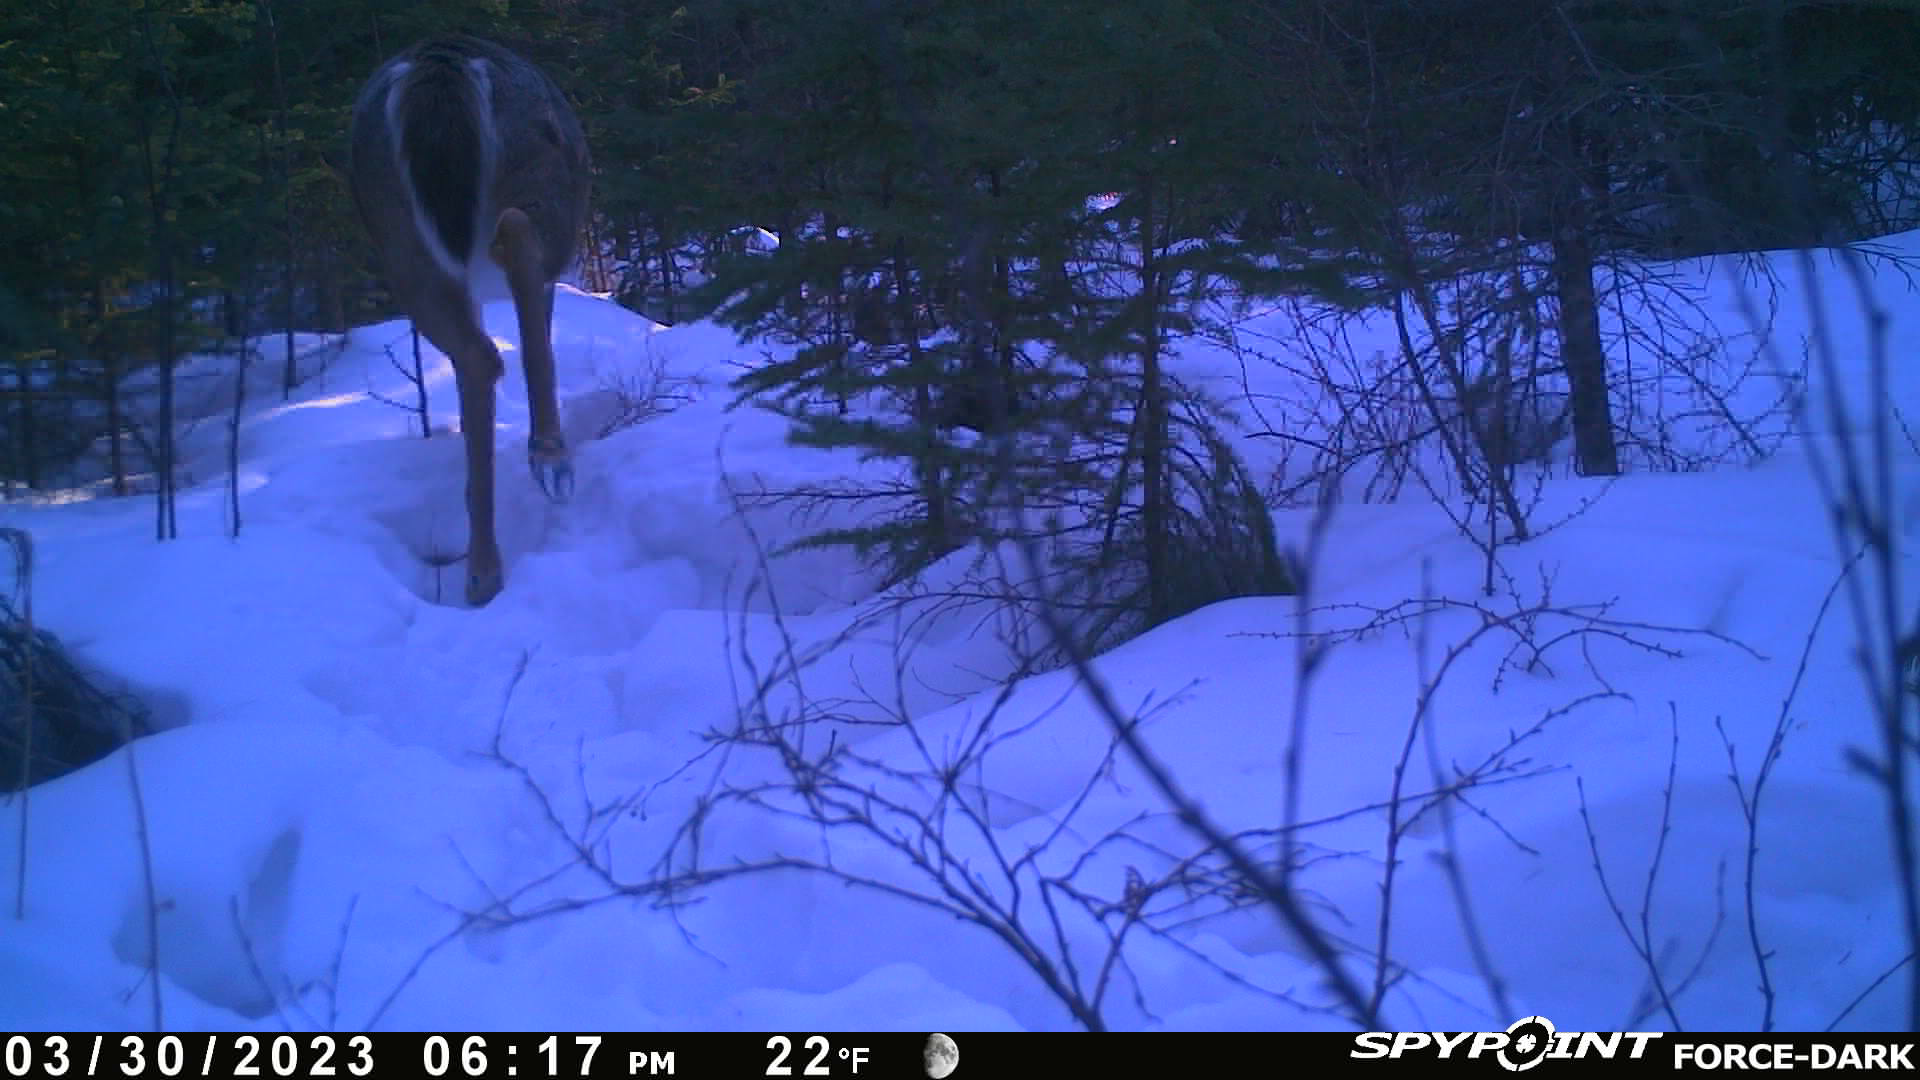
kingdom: Animalia
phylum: Chordata
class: Mammalia
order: Artiodactyla
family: Cervidae
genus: Odocoileus
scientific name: Odocoileus virginianus
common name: White-tailed deer
